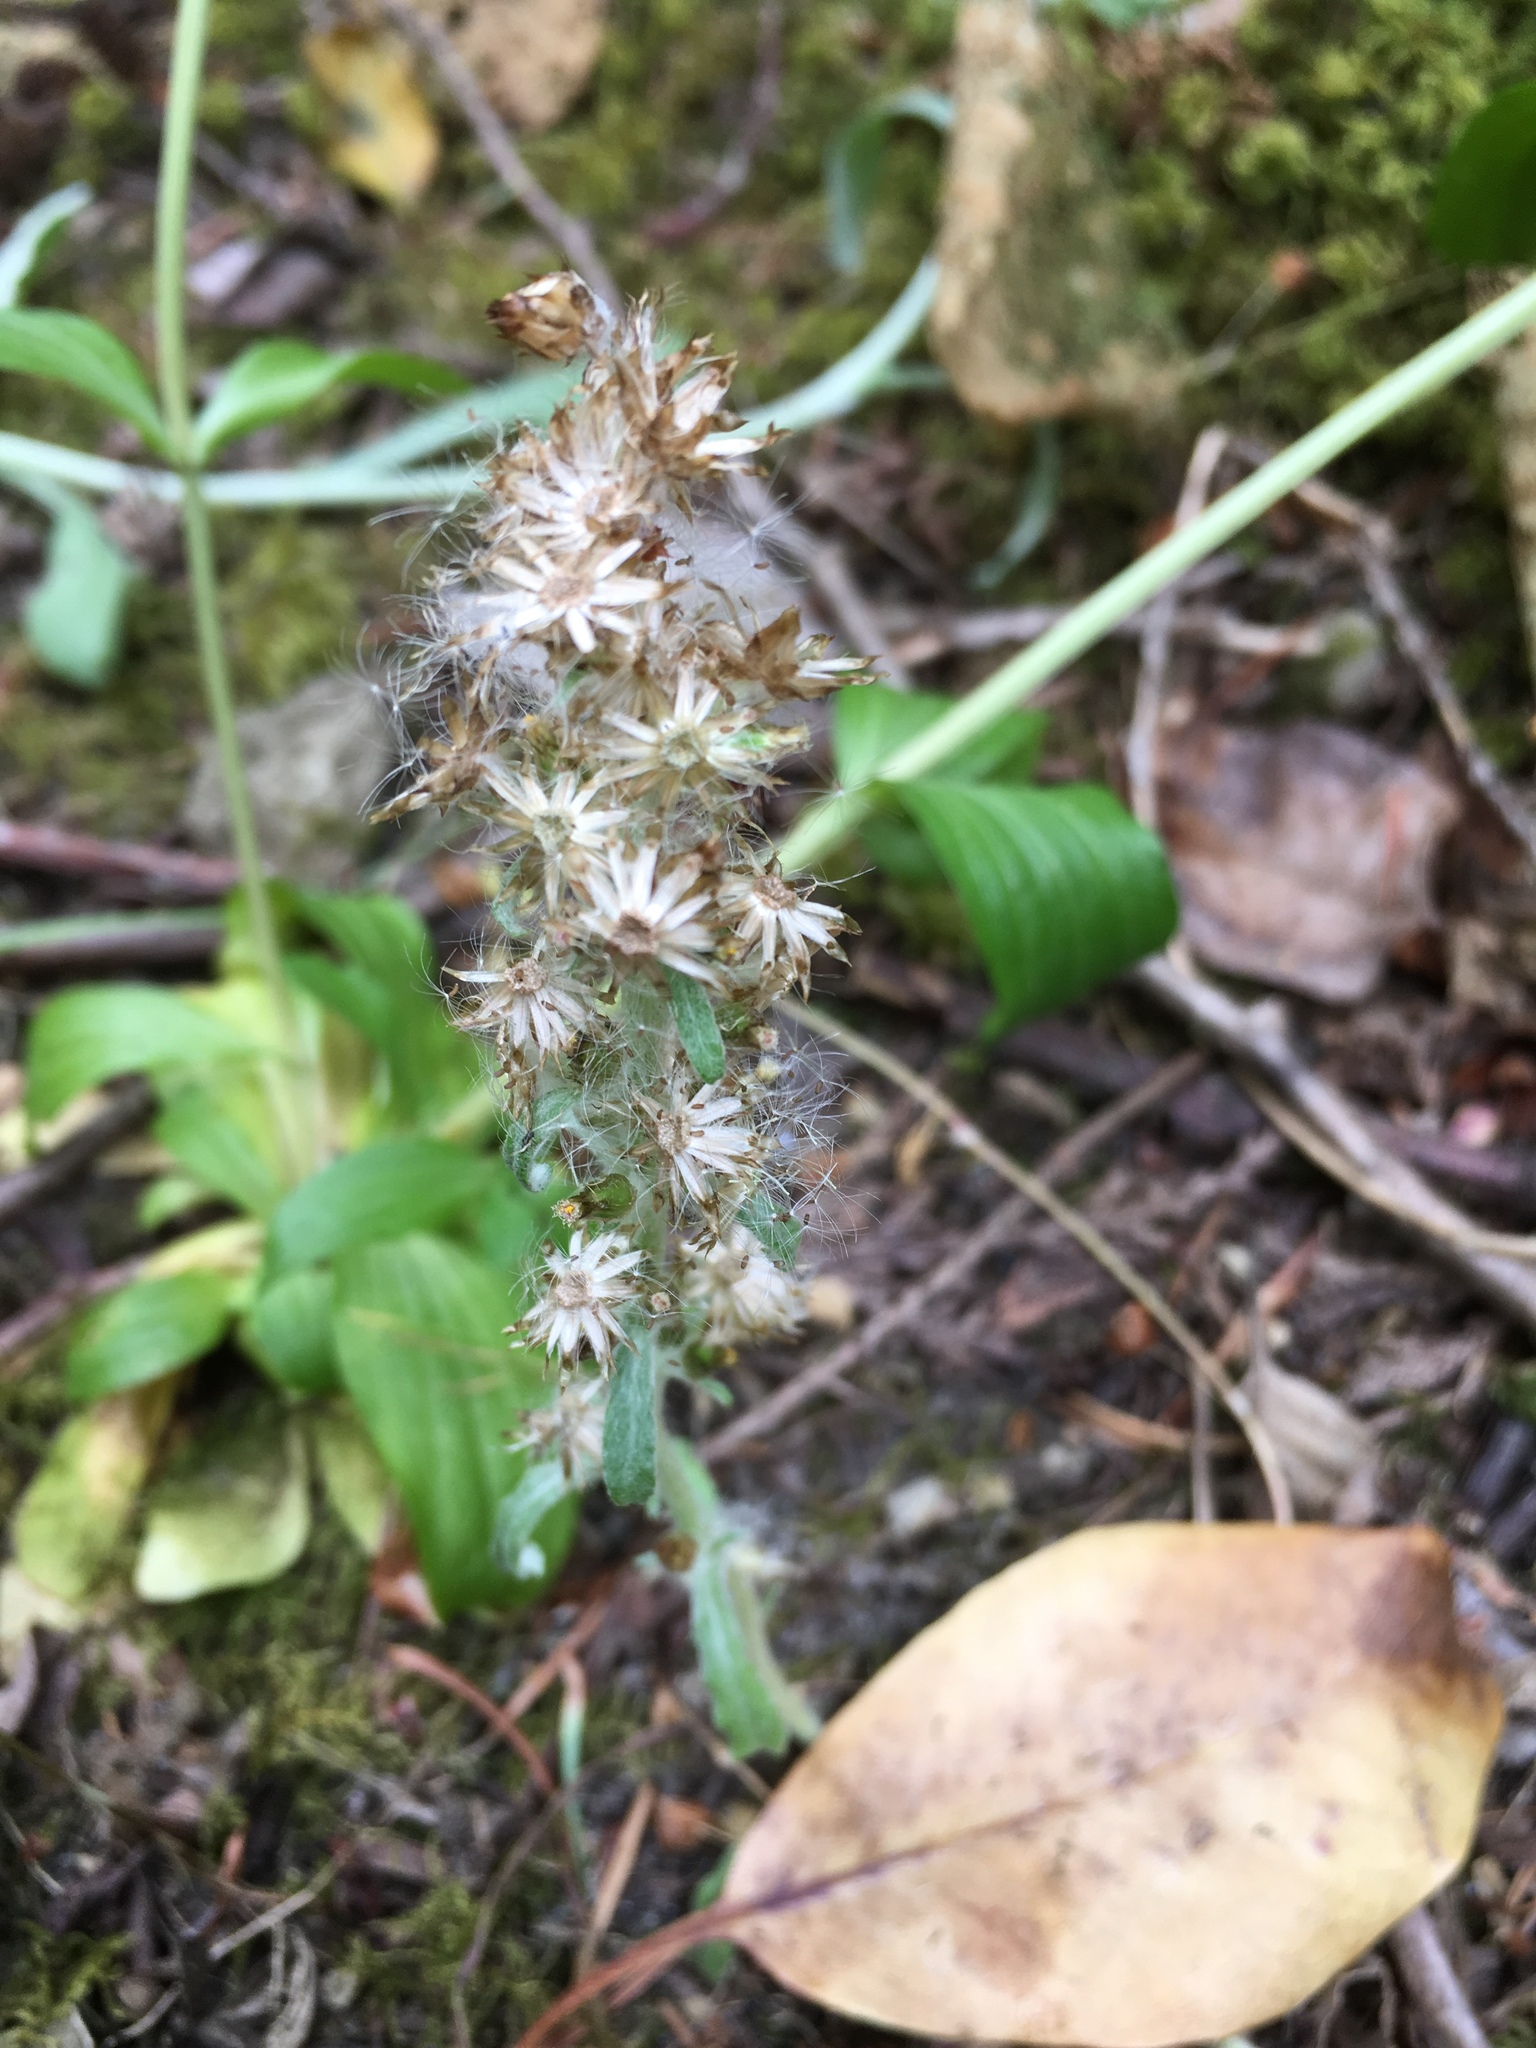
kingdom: Plantae
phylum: Tracheophyta
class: Magnoliopsida
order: Asterales
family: Asteraceae
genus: Gamochaeta
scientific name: Gamochaeta ustulata
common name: Pacific cudweed
